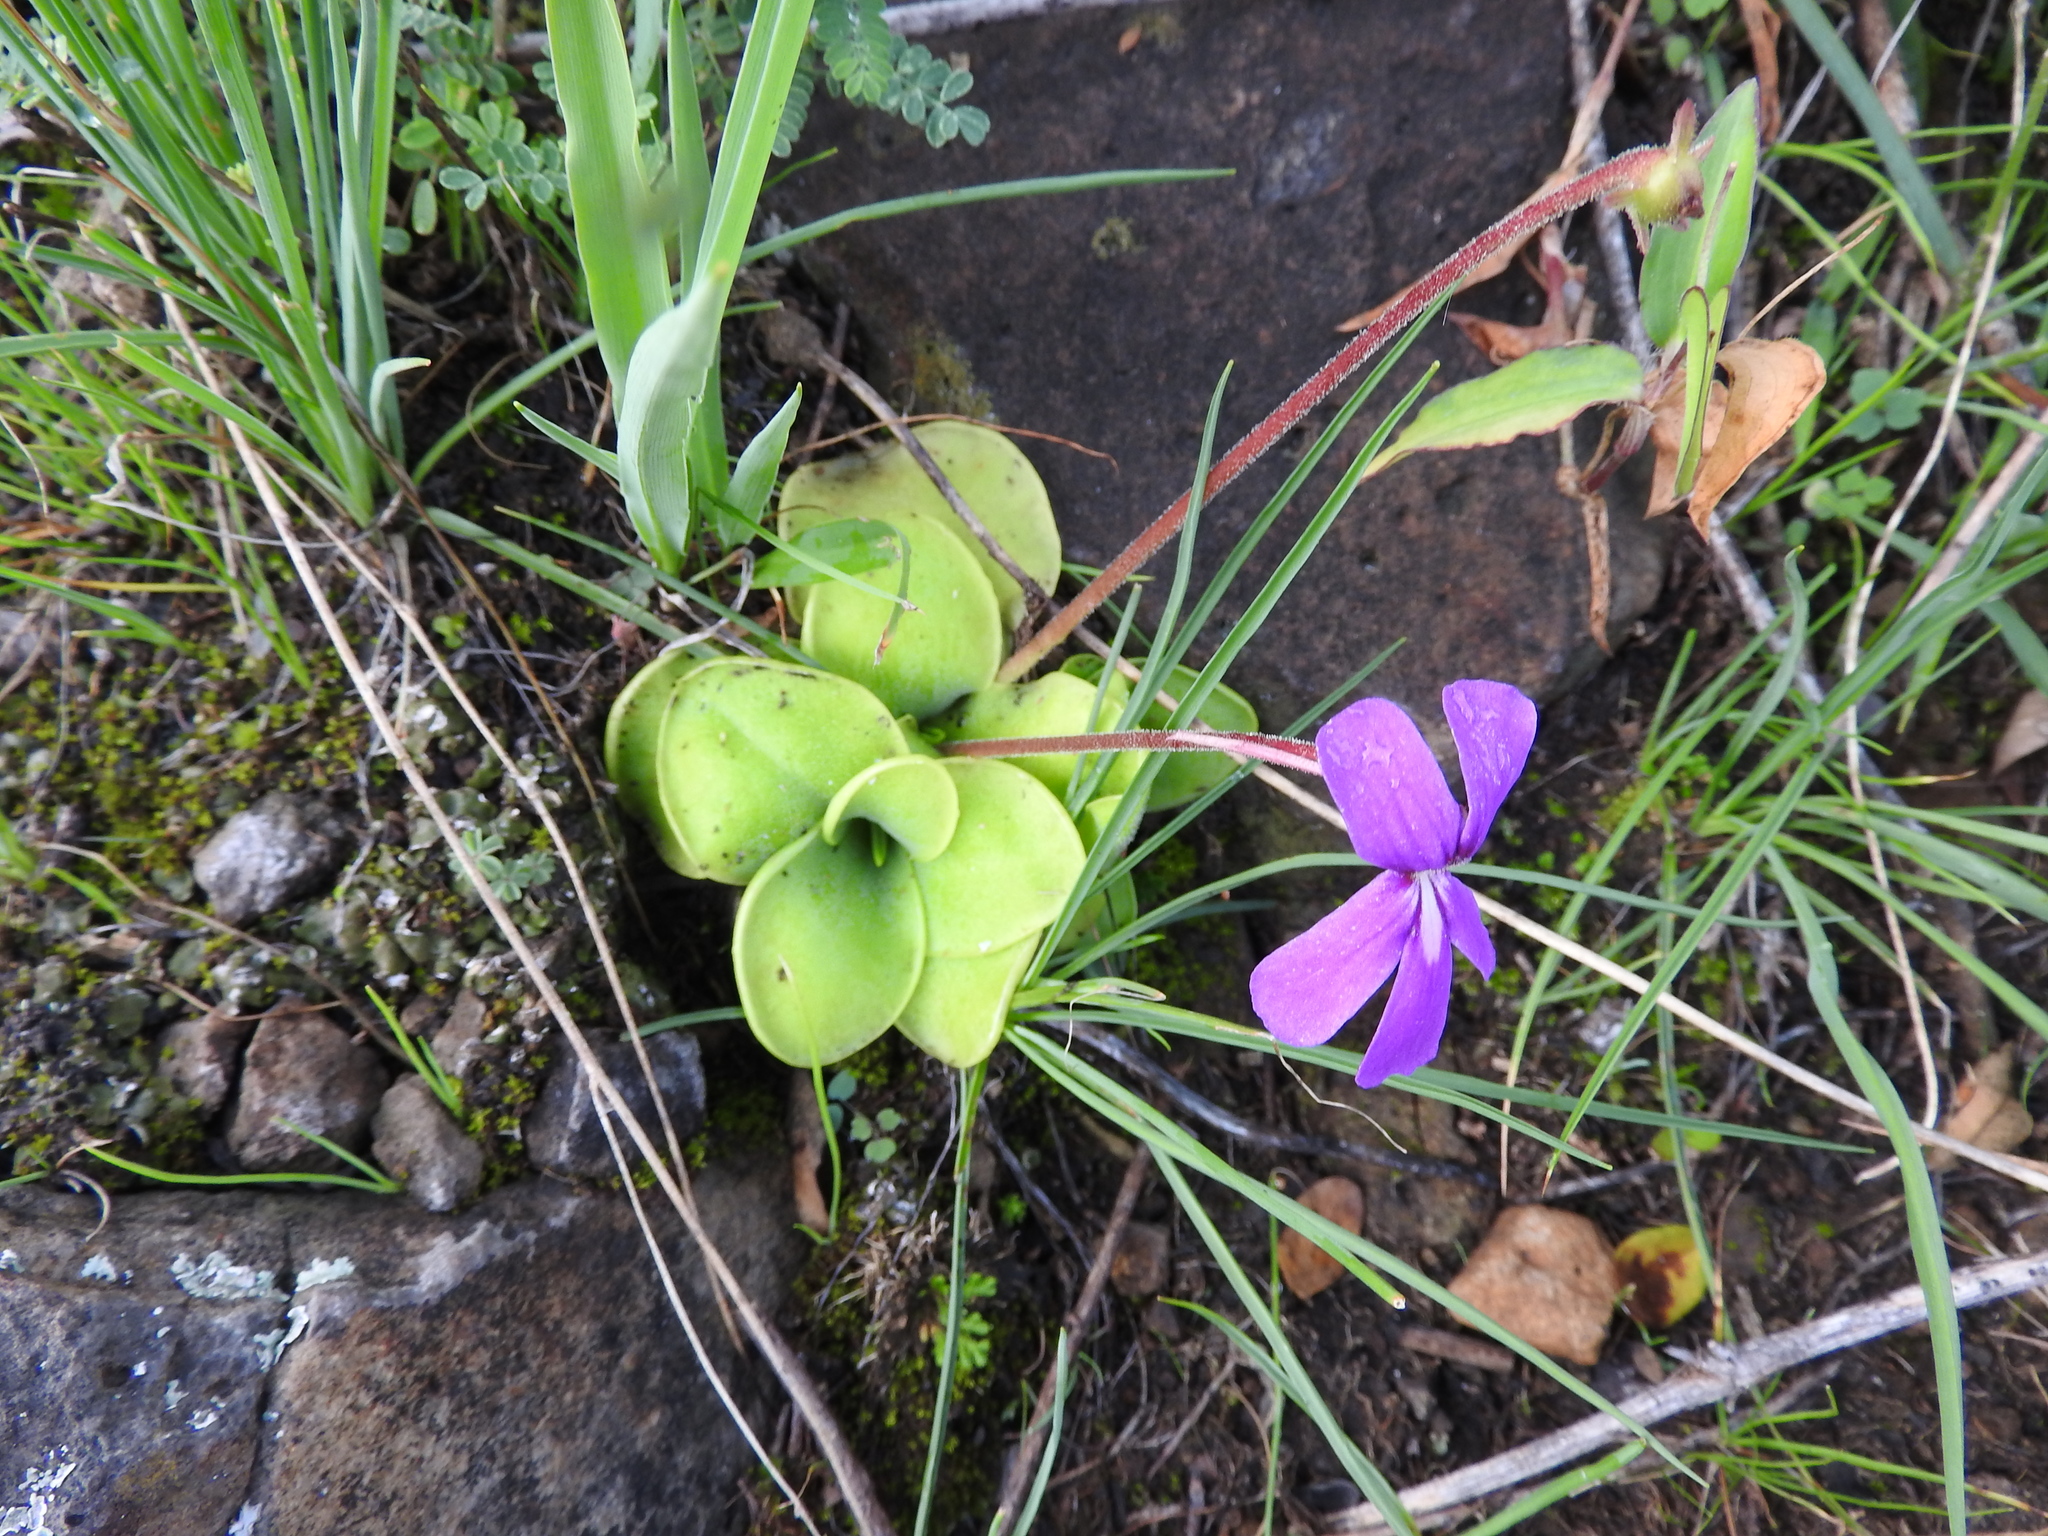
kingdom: Plantae
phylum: Tracheophyta
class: Magnoliopsida
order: Lamiales
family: Lentibulariaceae
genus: Pinguicula
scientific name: Pinguicula moranensis
